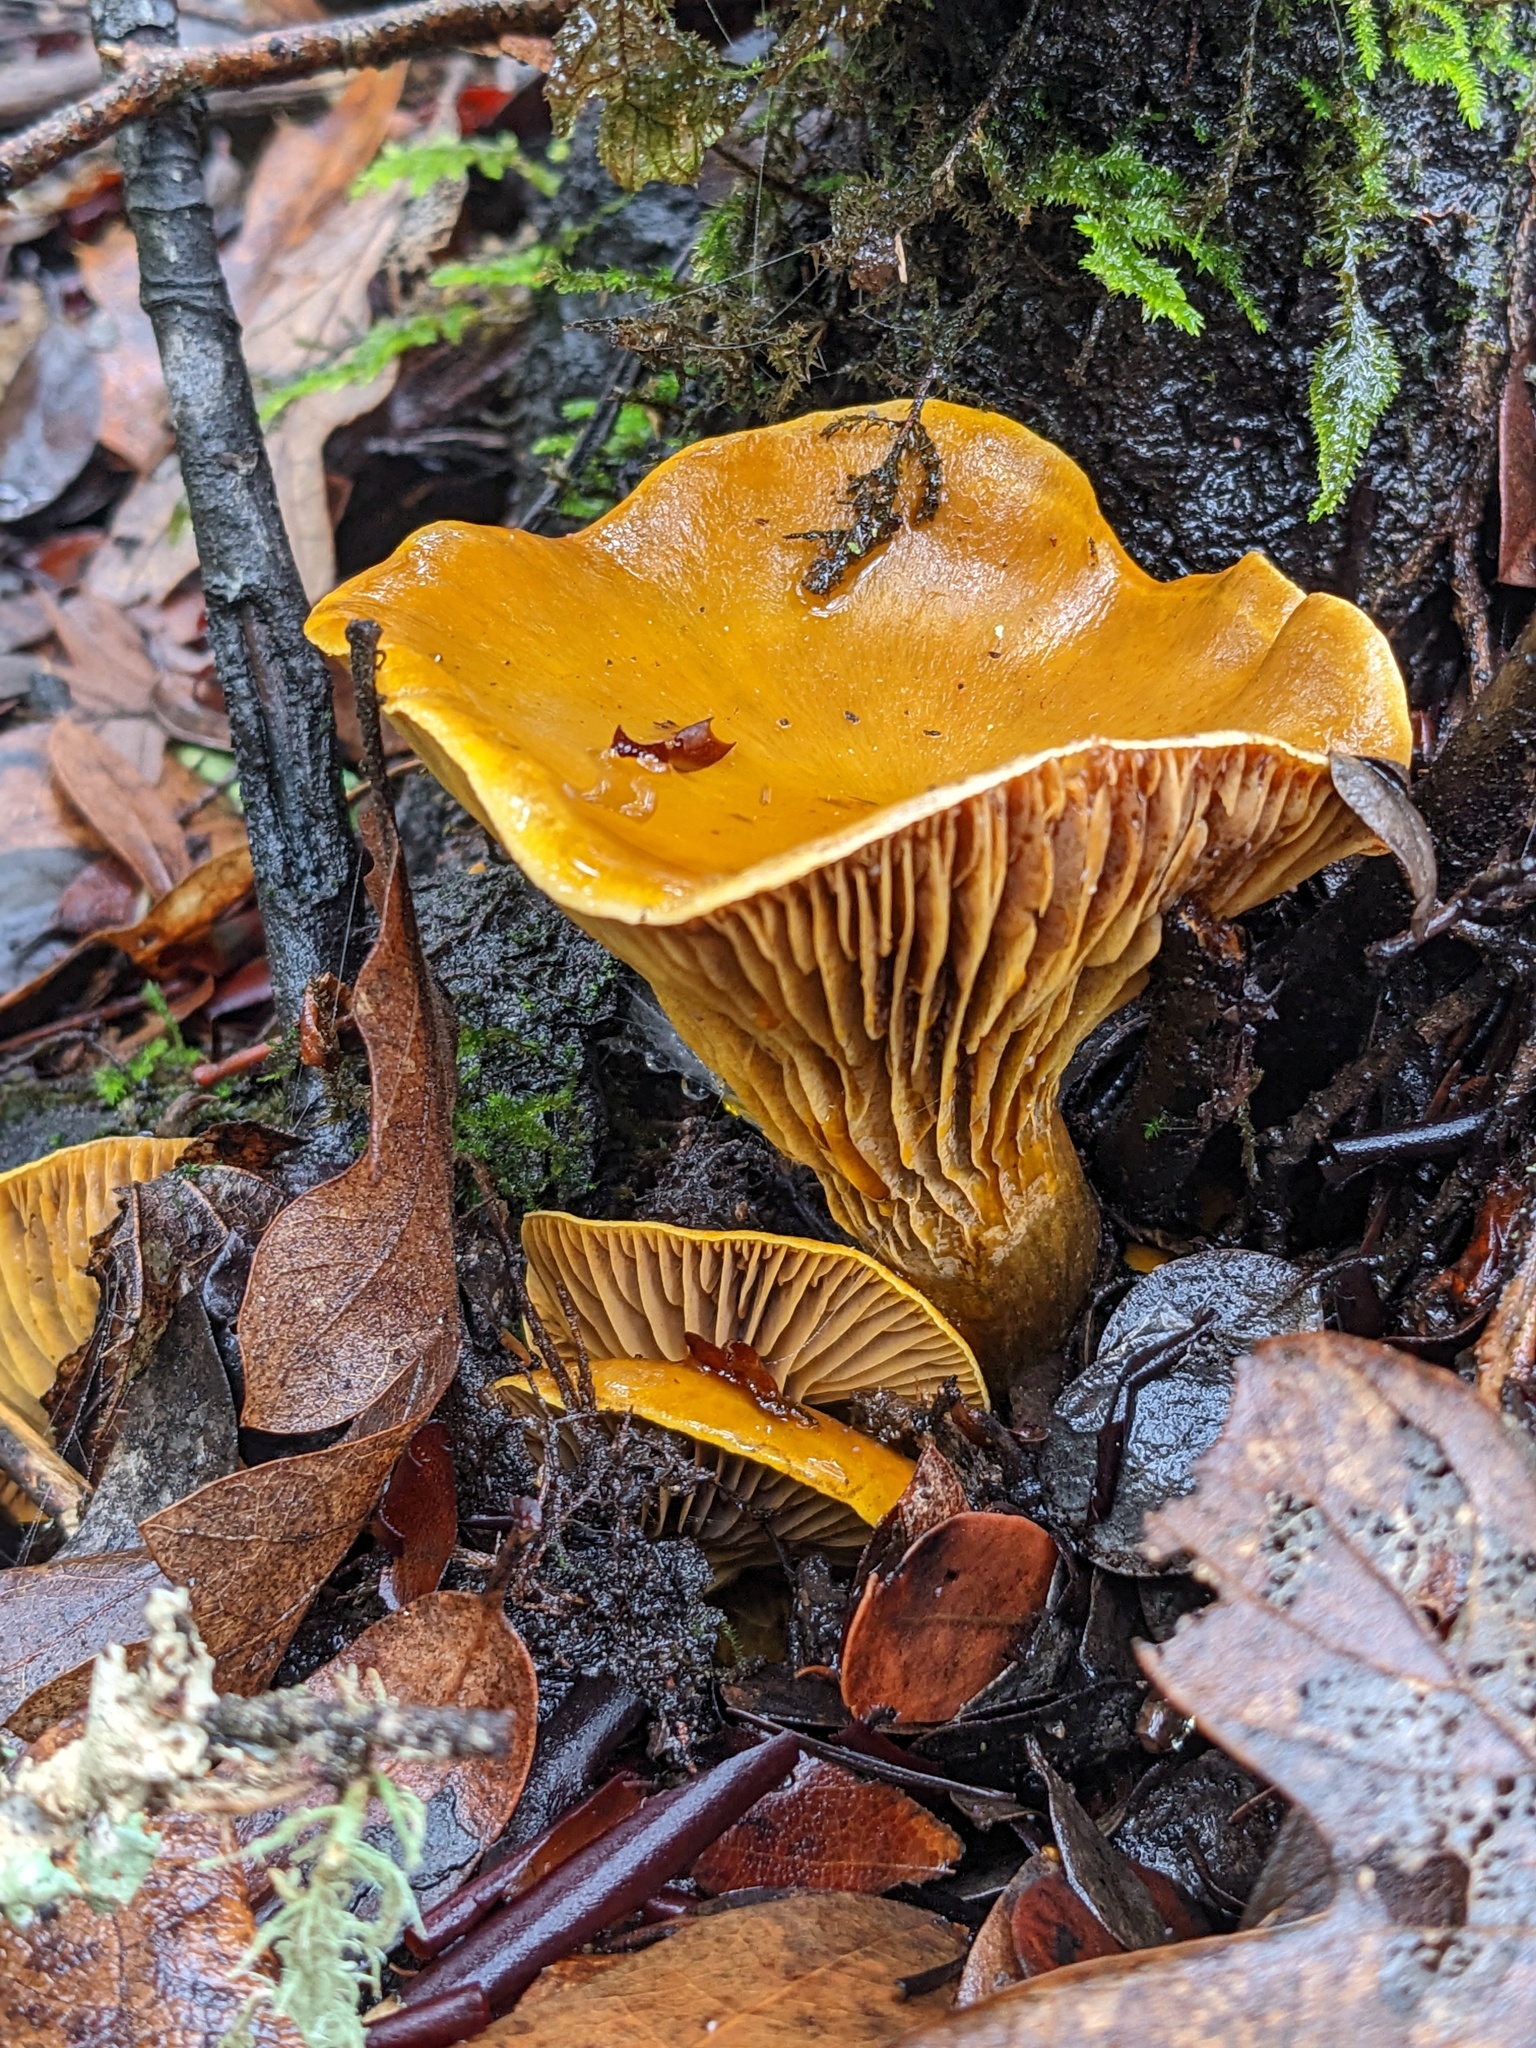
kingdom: Fungi
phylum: Basidiomycota
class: Agaricomycetes
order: Agaricales
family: Omphalotaceae
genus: Omphalotus
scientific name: Omphalotus olivascens
